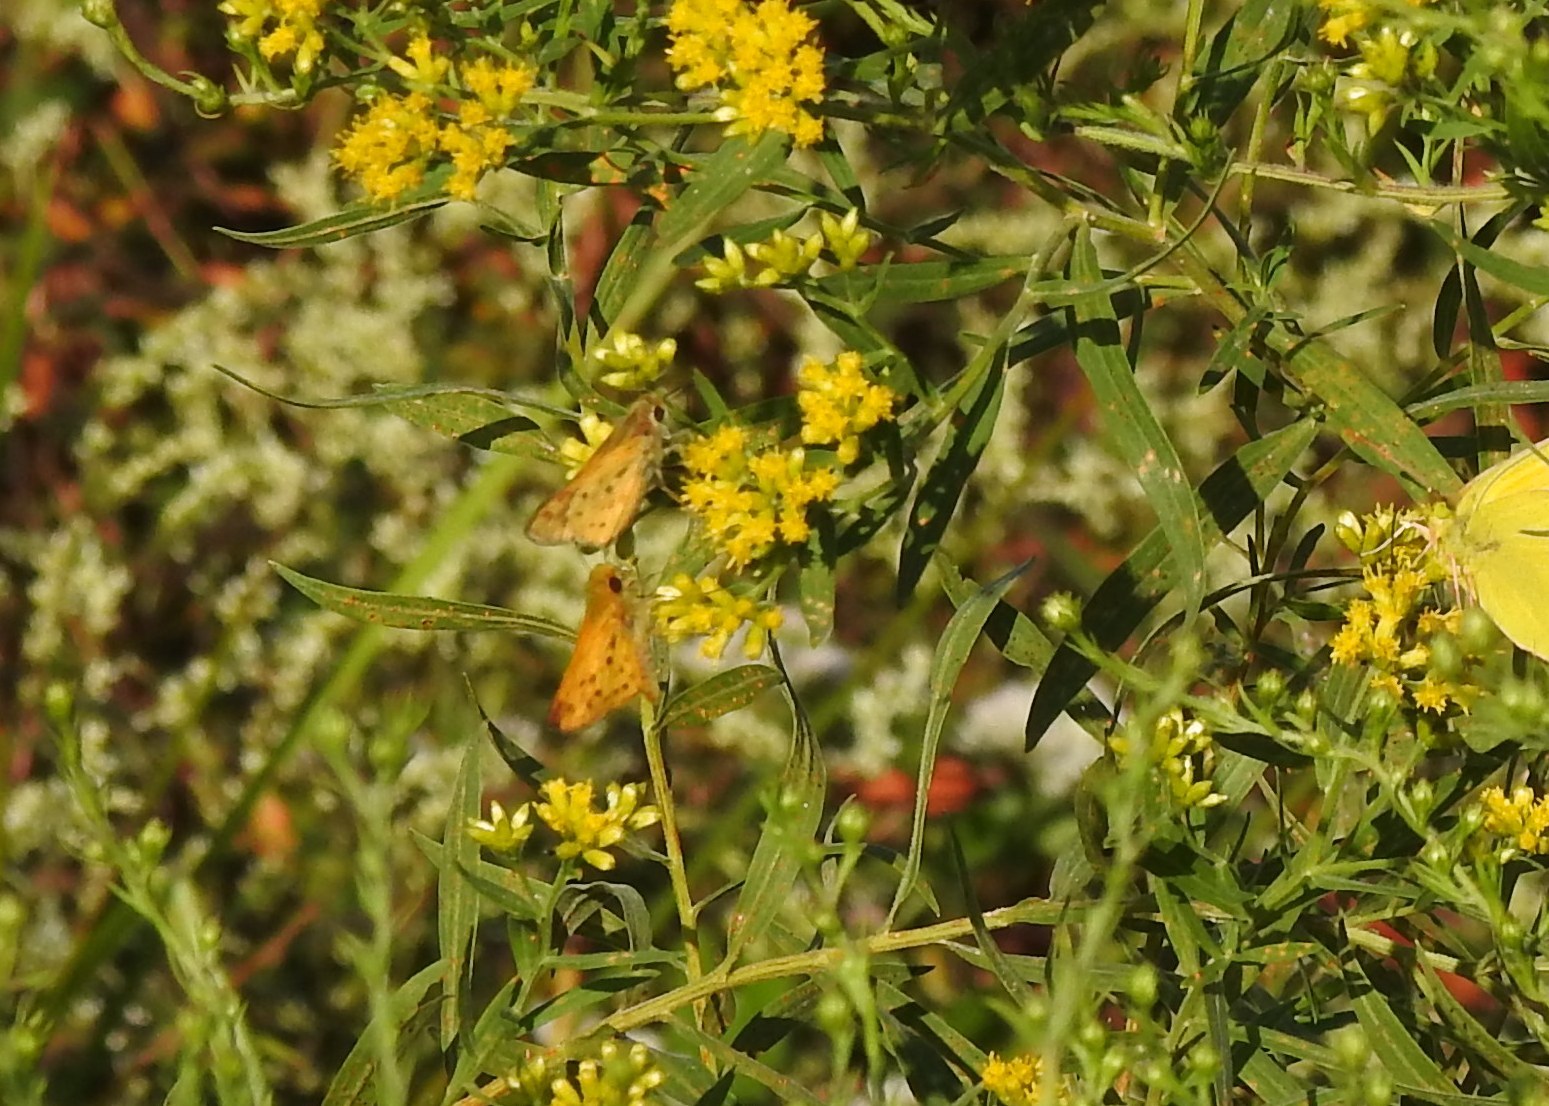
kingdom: Animalia
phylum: Arthropoda
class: Insecta
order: Lepidoptera
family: Hesperiidae
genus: Hylephila
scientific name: Hylephila phyleus
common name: Fiery skipper
